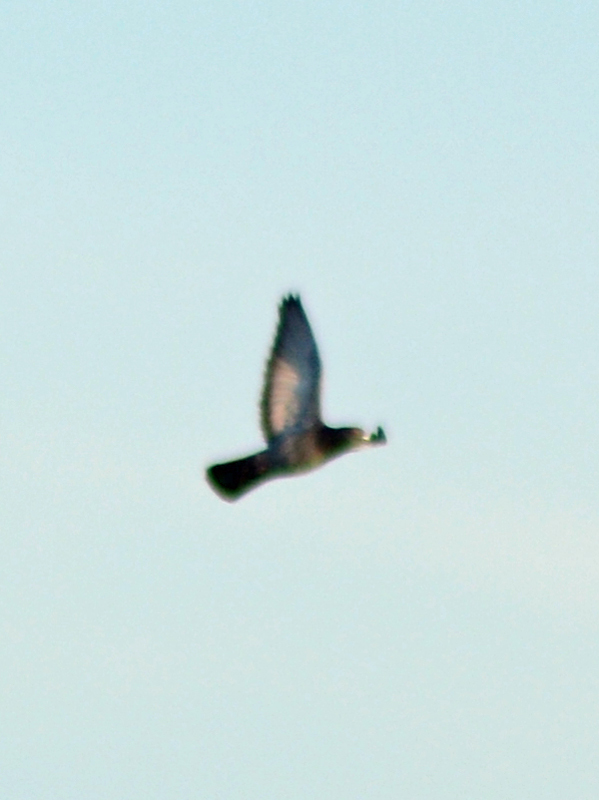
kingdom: Animalia
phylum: Chordata
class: Aves
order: Columbiformes
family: Columbidae
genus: Columba
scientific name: Columba livia
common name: Rock pigeon
